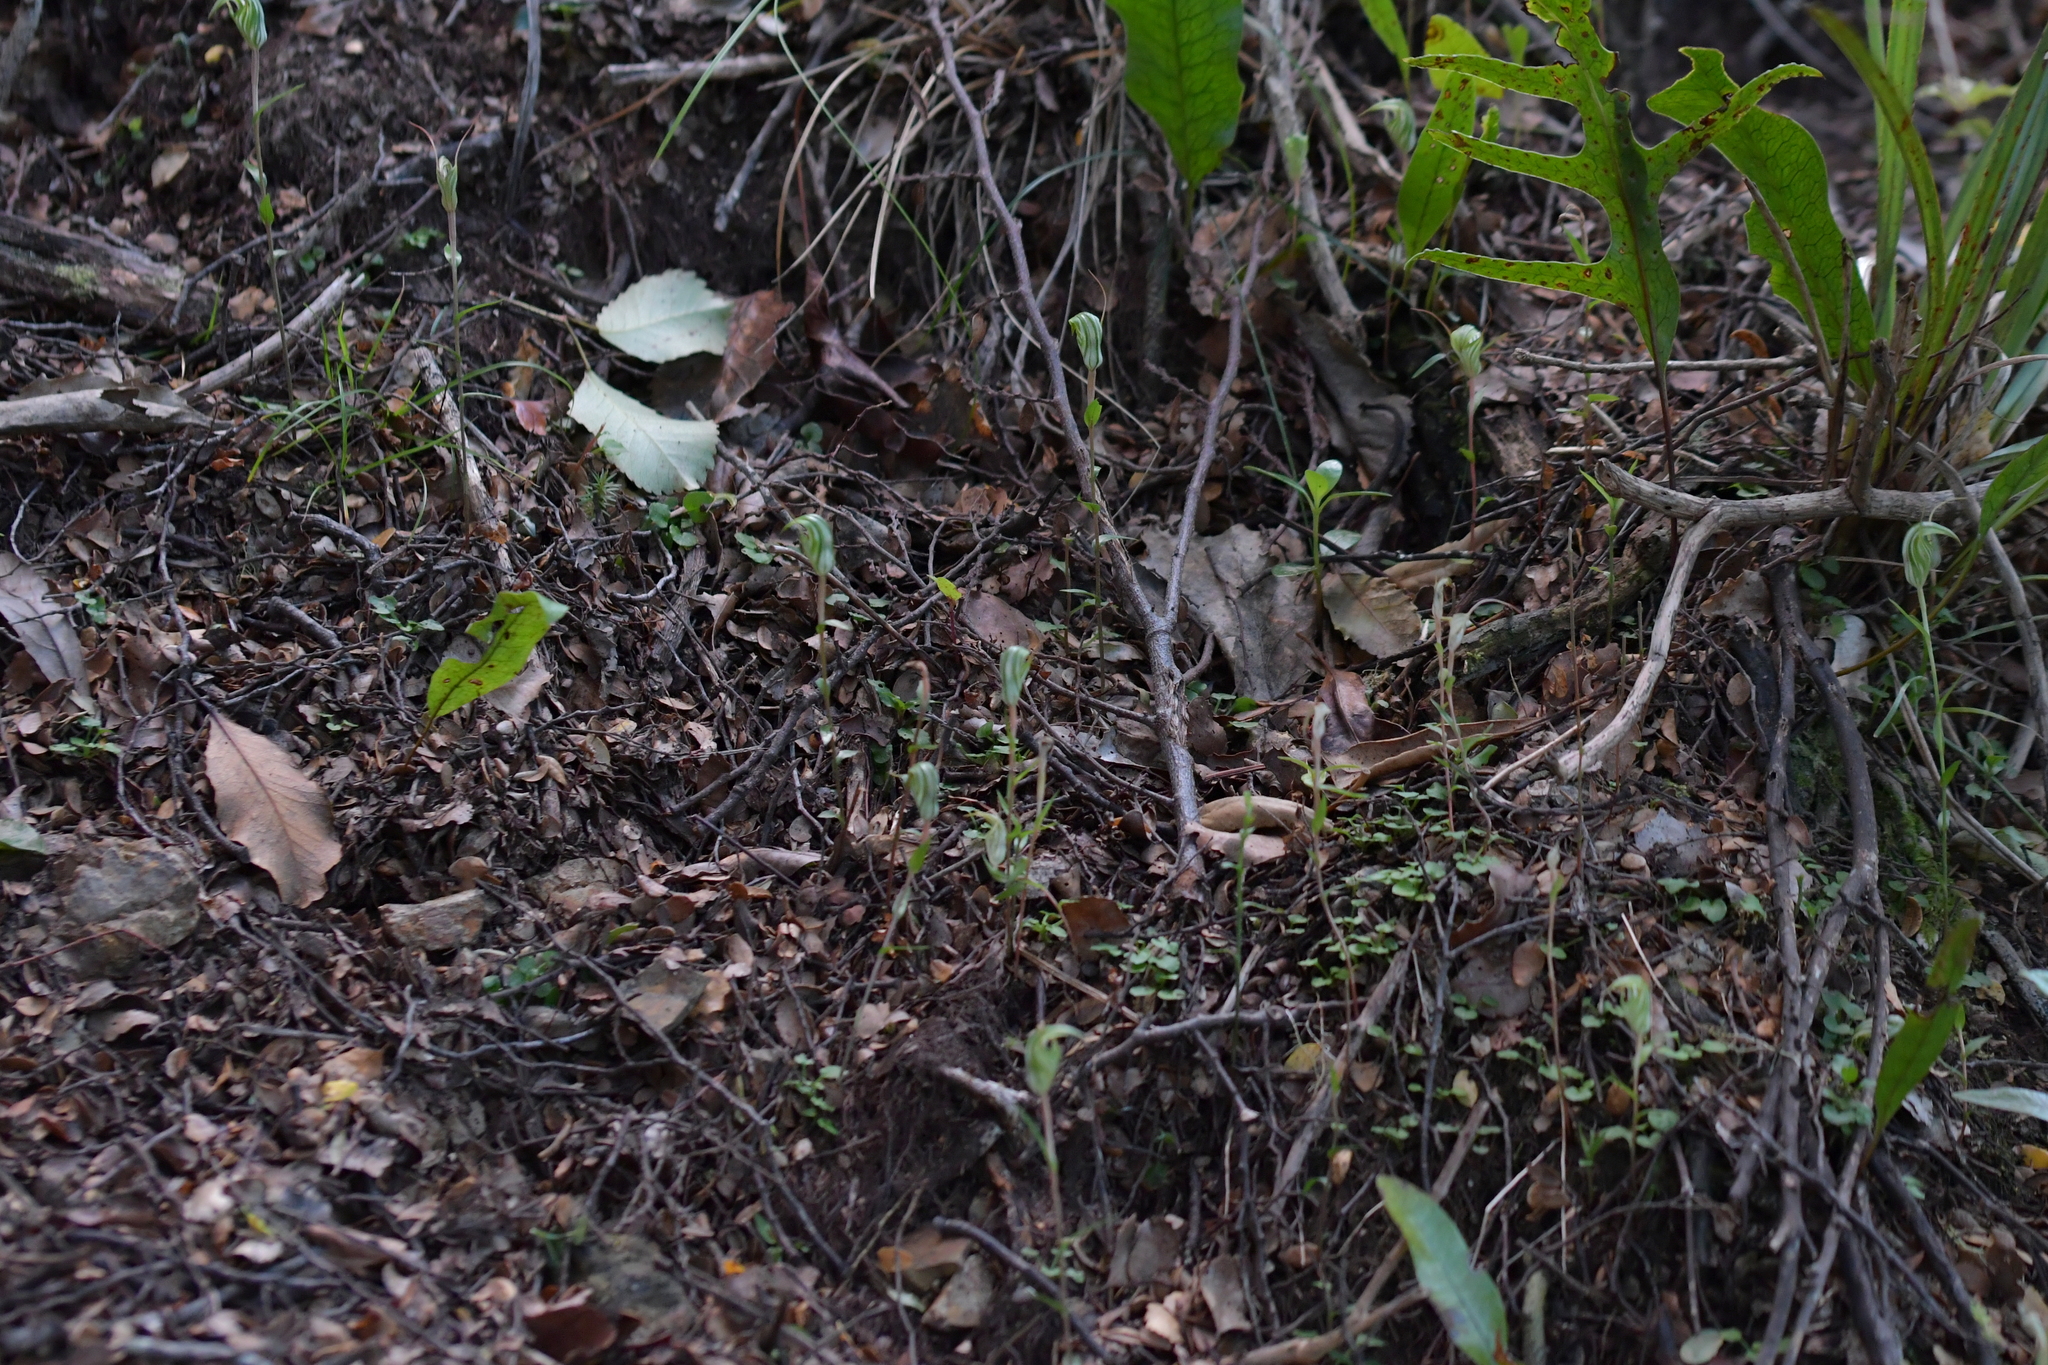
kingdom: Plantae
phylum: Tracheophyta
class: Liliopsida
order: Asparagales
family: Orchidaceae
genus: Pterostylis
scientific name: Pterostylis alobula
